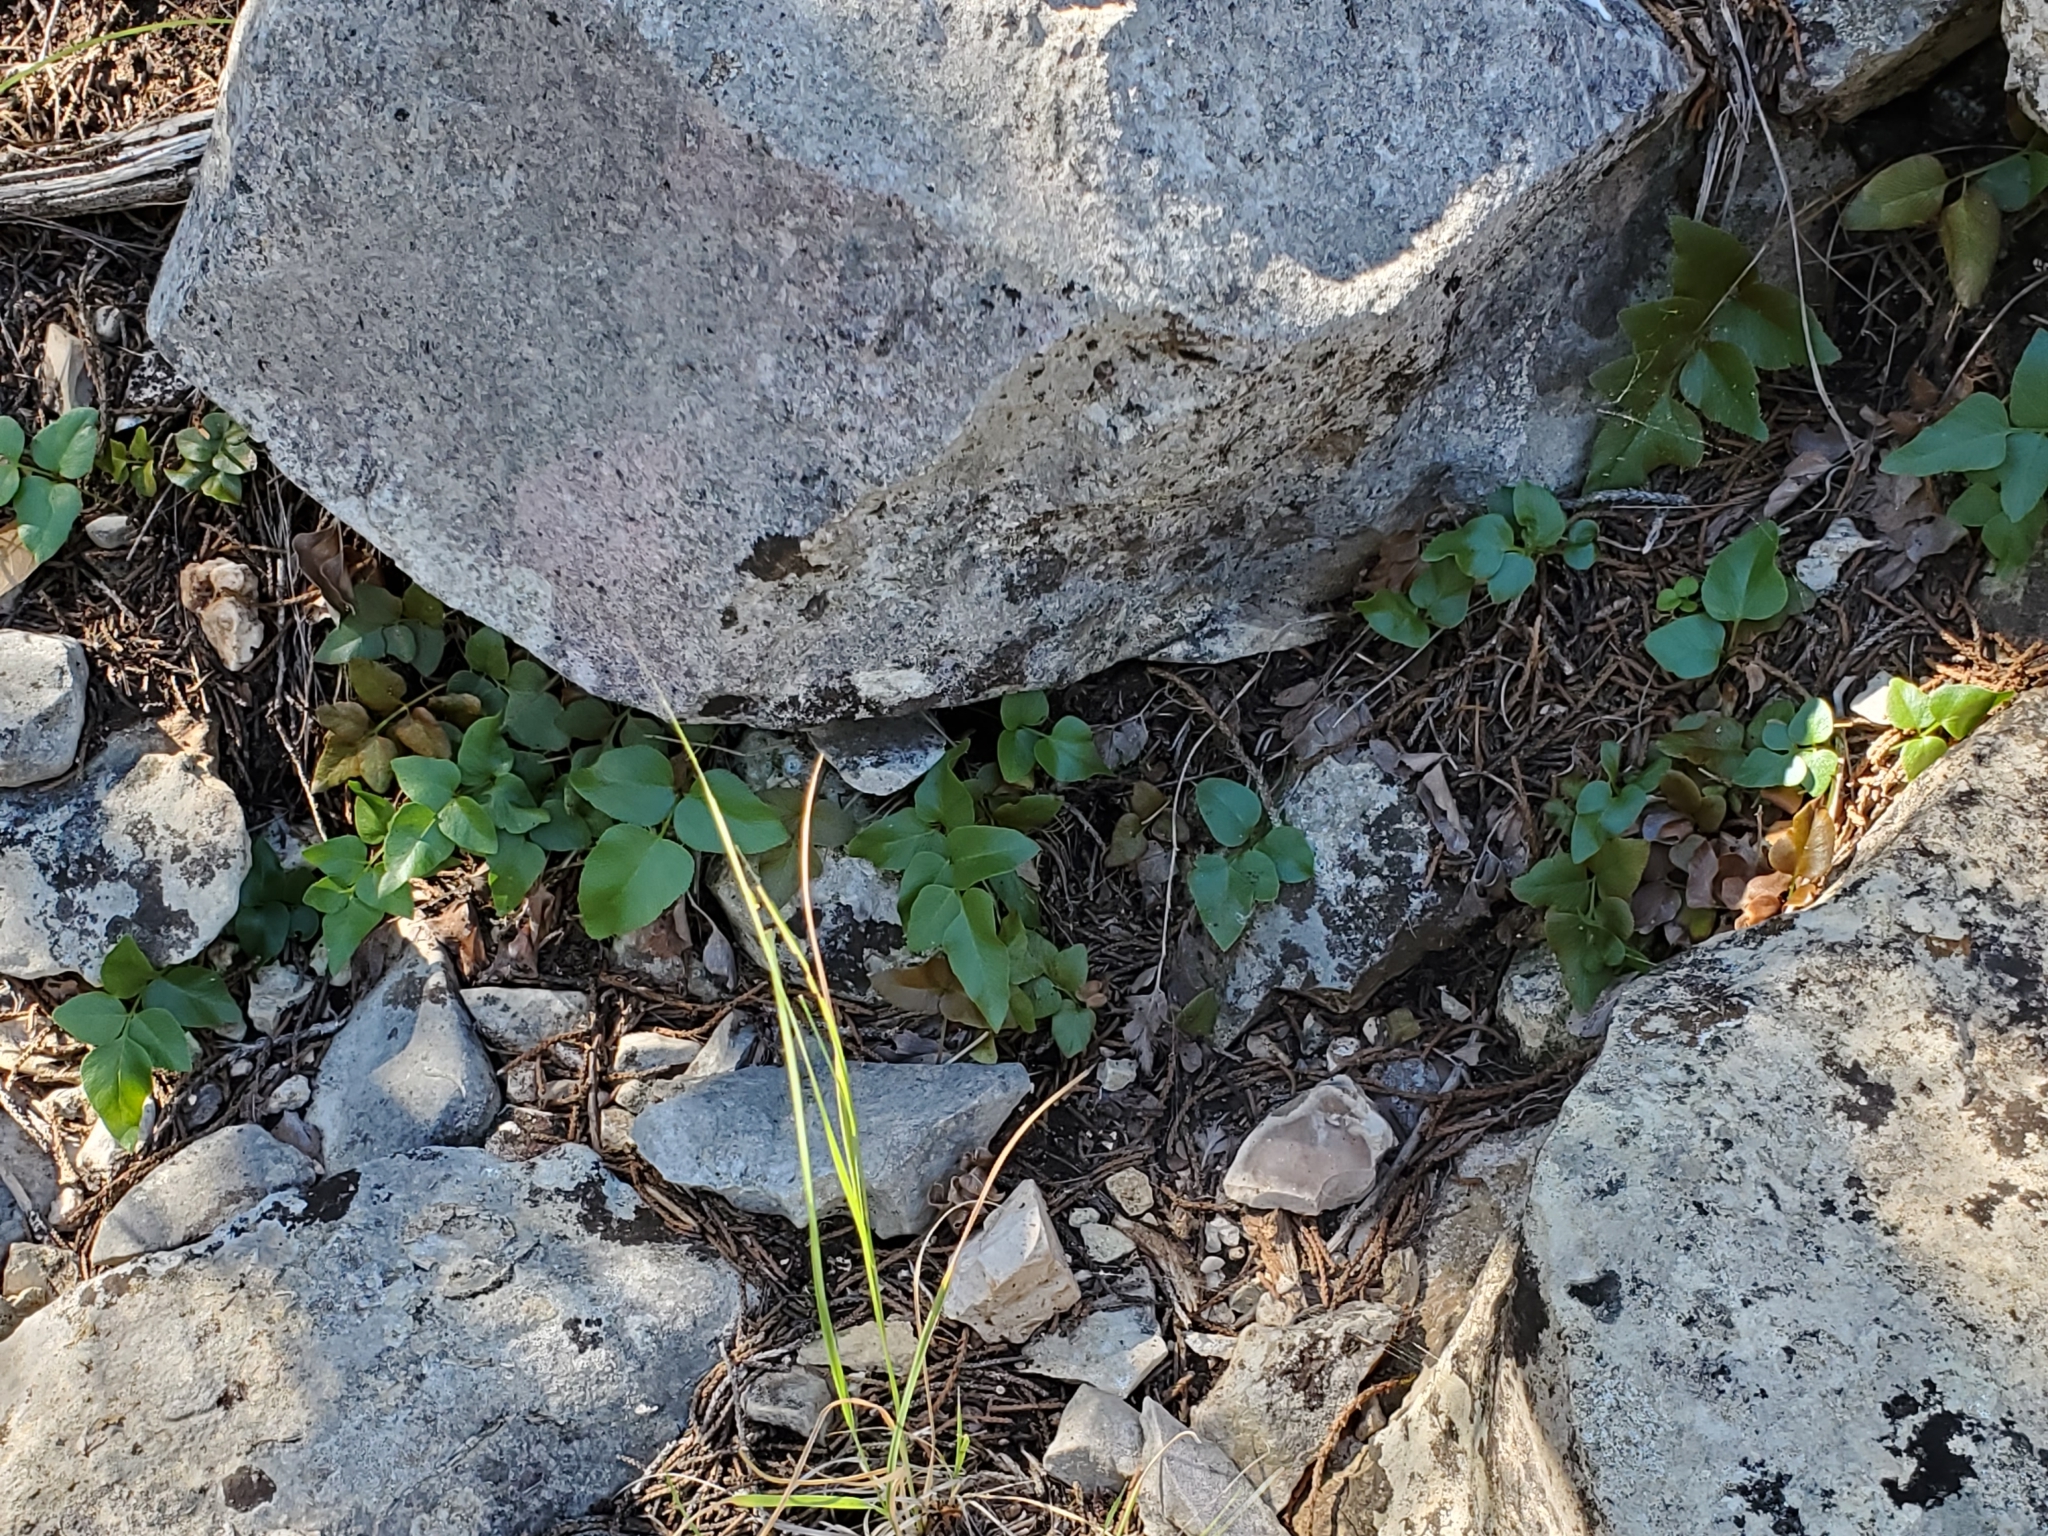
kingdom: Plantae
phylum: Tracheophyta
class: Polypodiopsida
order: Schizaeales
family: Anemiaceae
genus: Anemia
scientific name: Anemia mexicana
